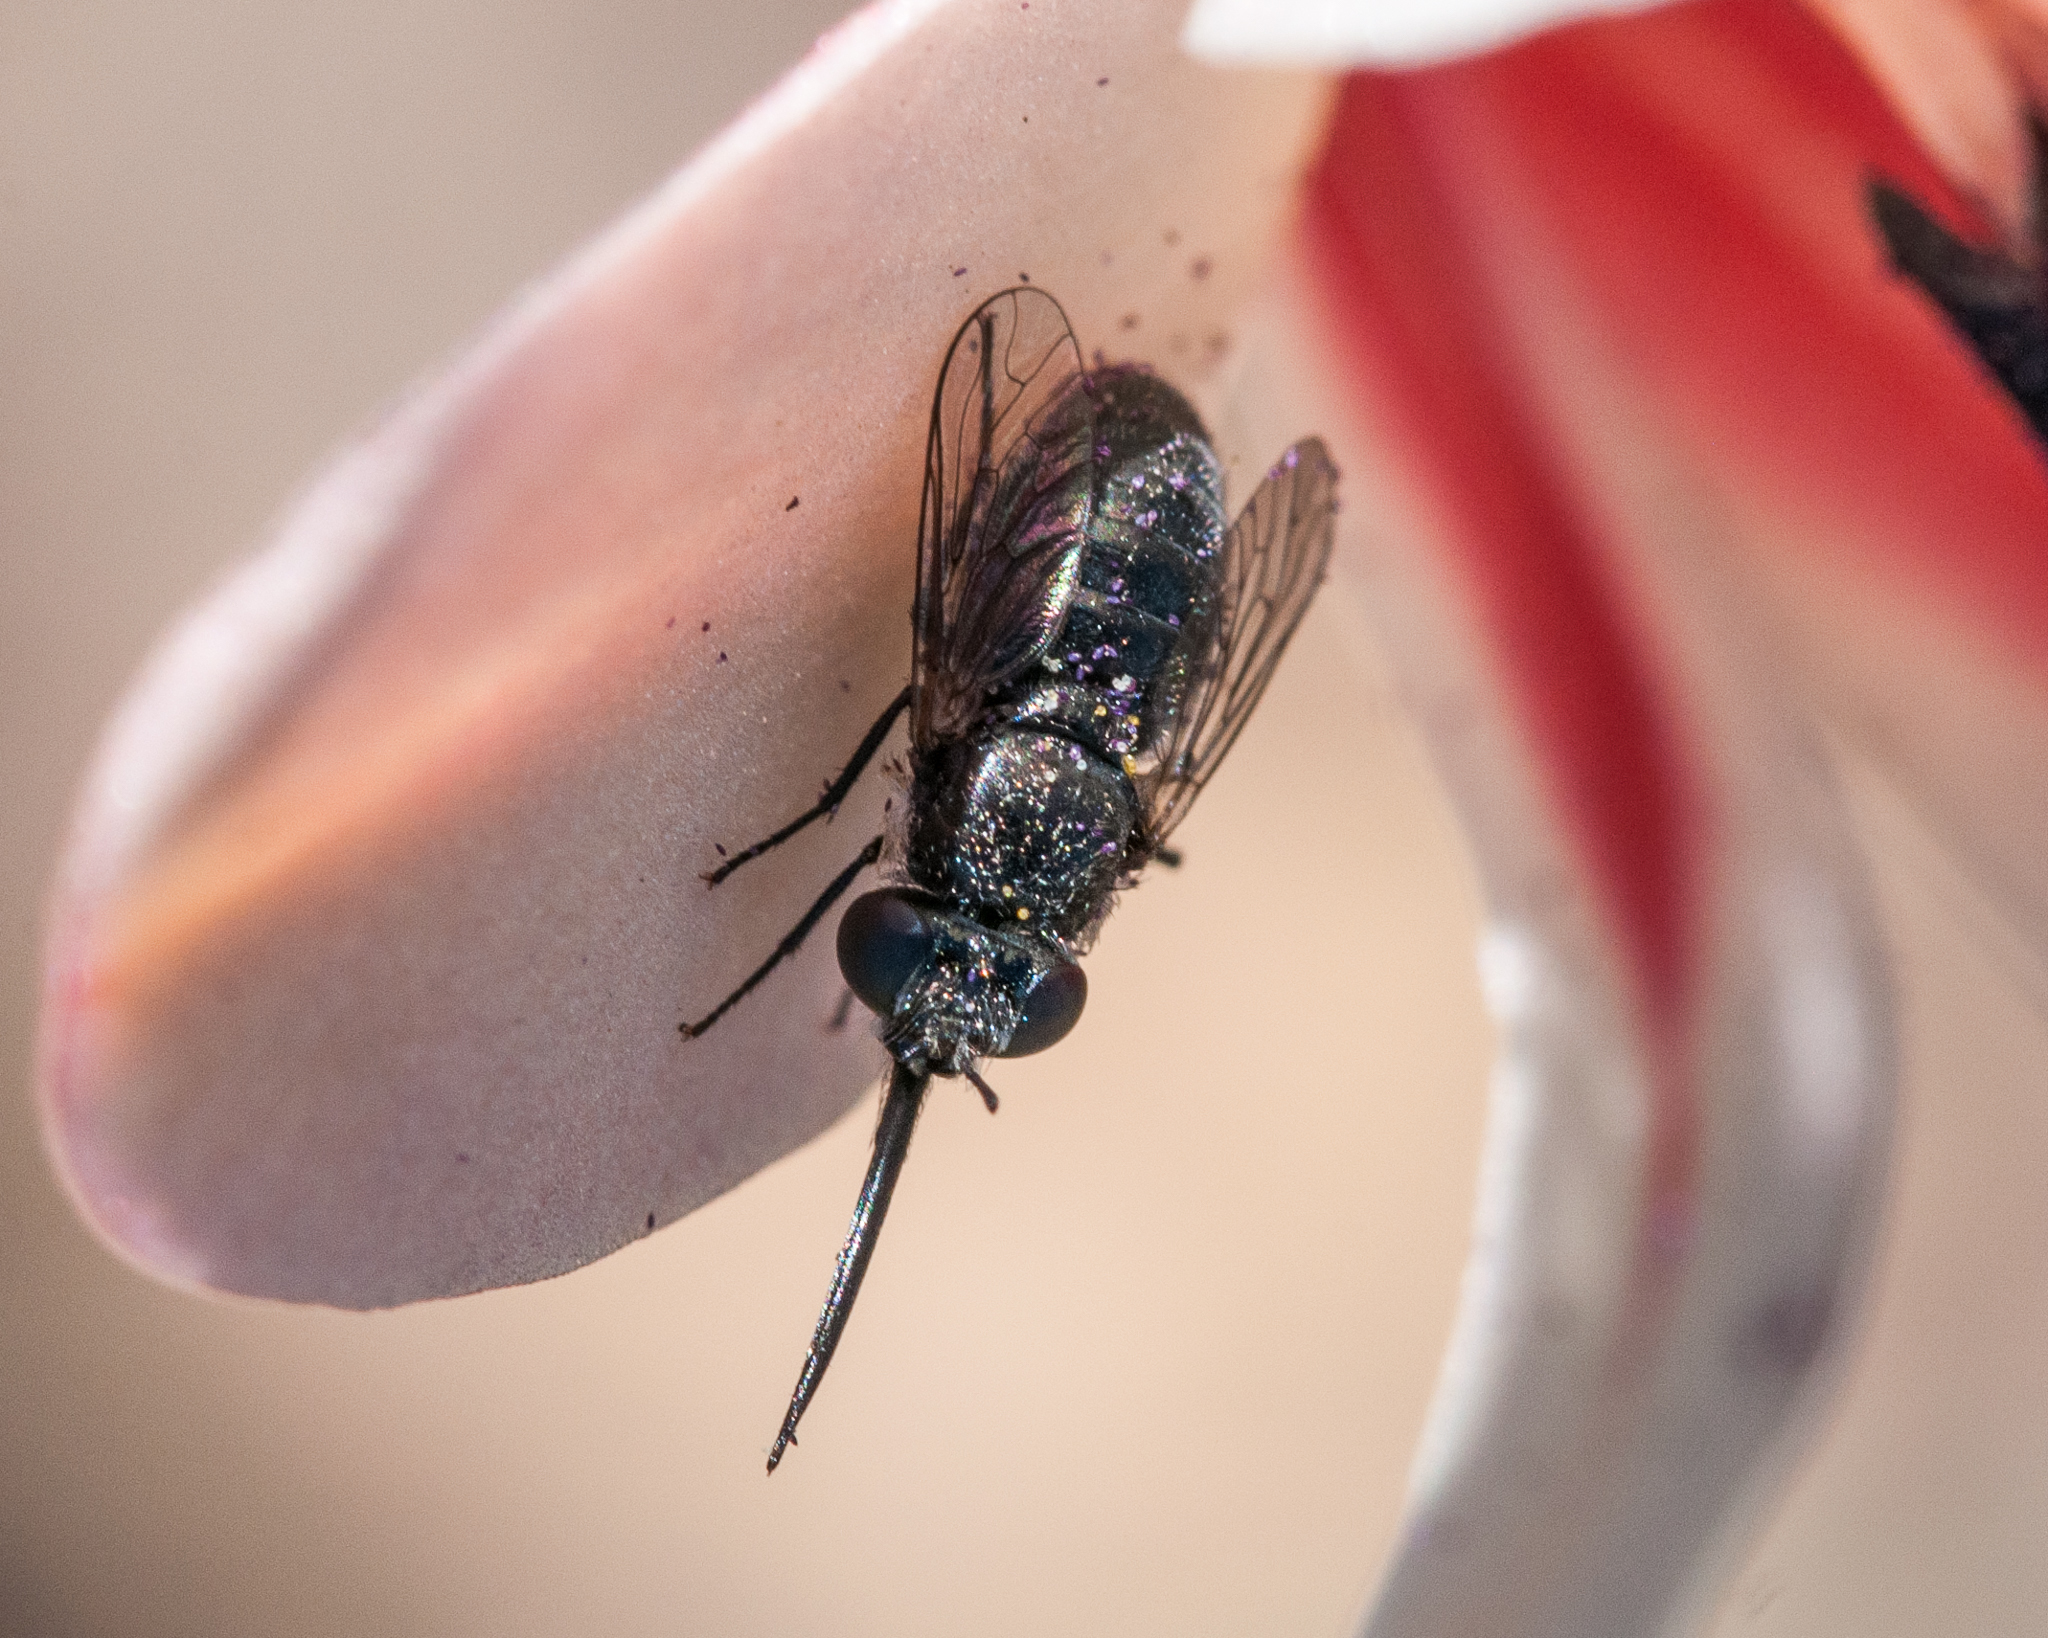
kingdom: Animalia
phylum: Arthropoda
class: Insecta
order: Diptera
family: Bombyliidae
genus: Megapalpus
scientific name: Megapalpus capensis
